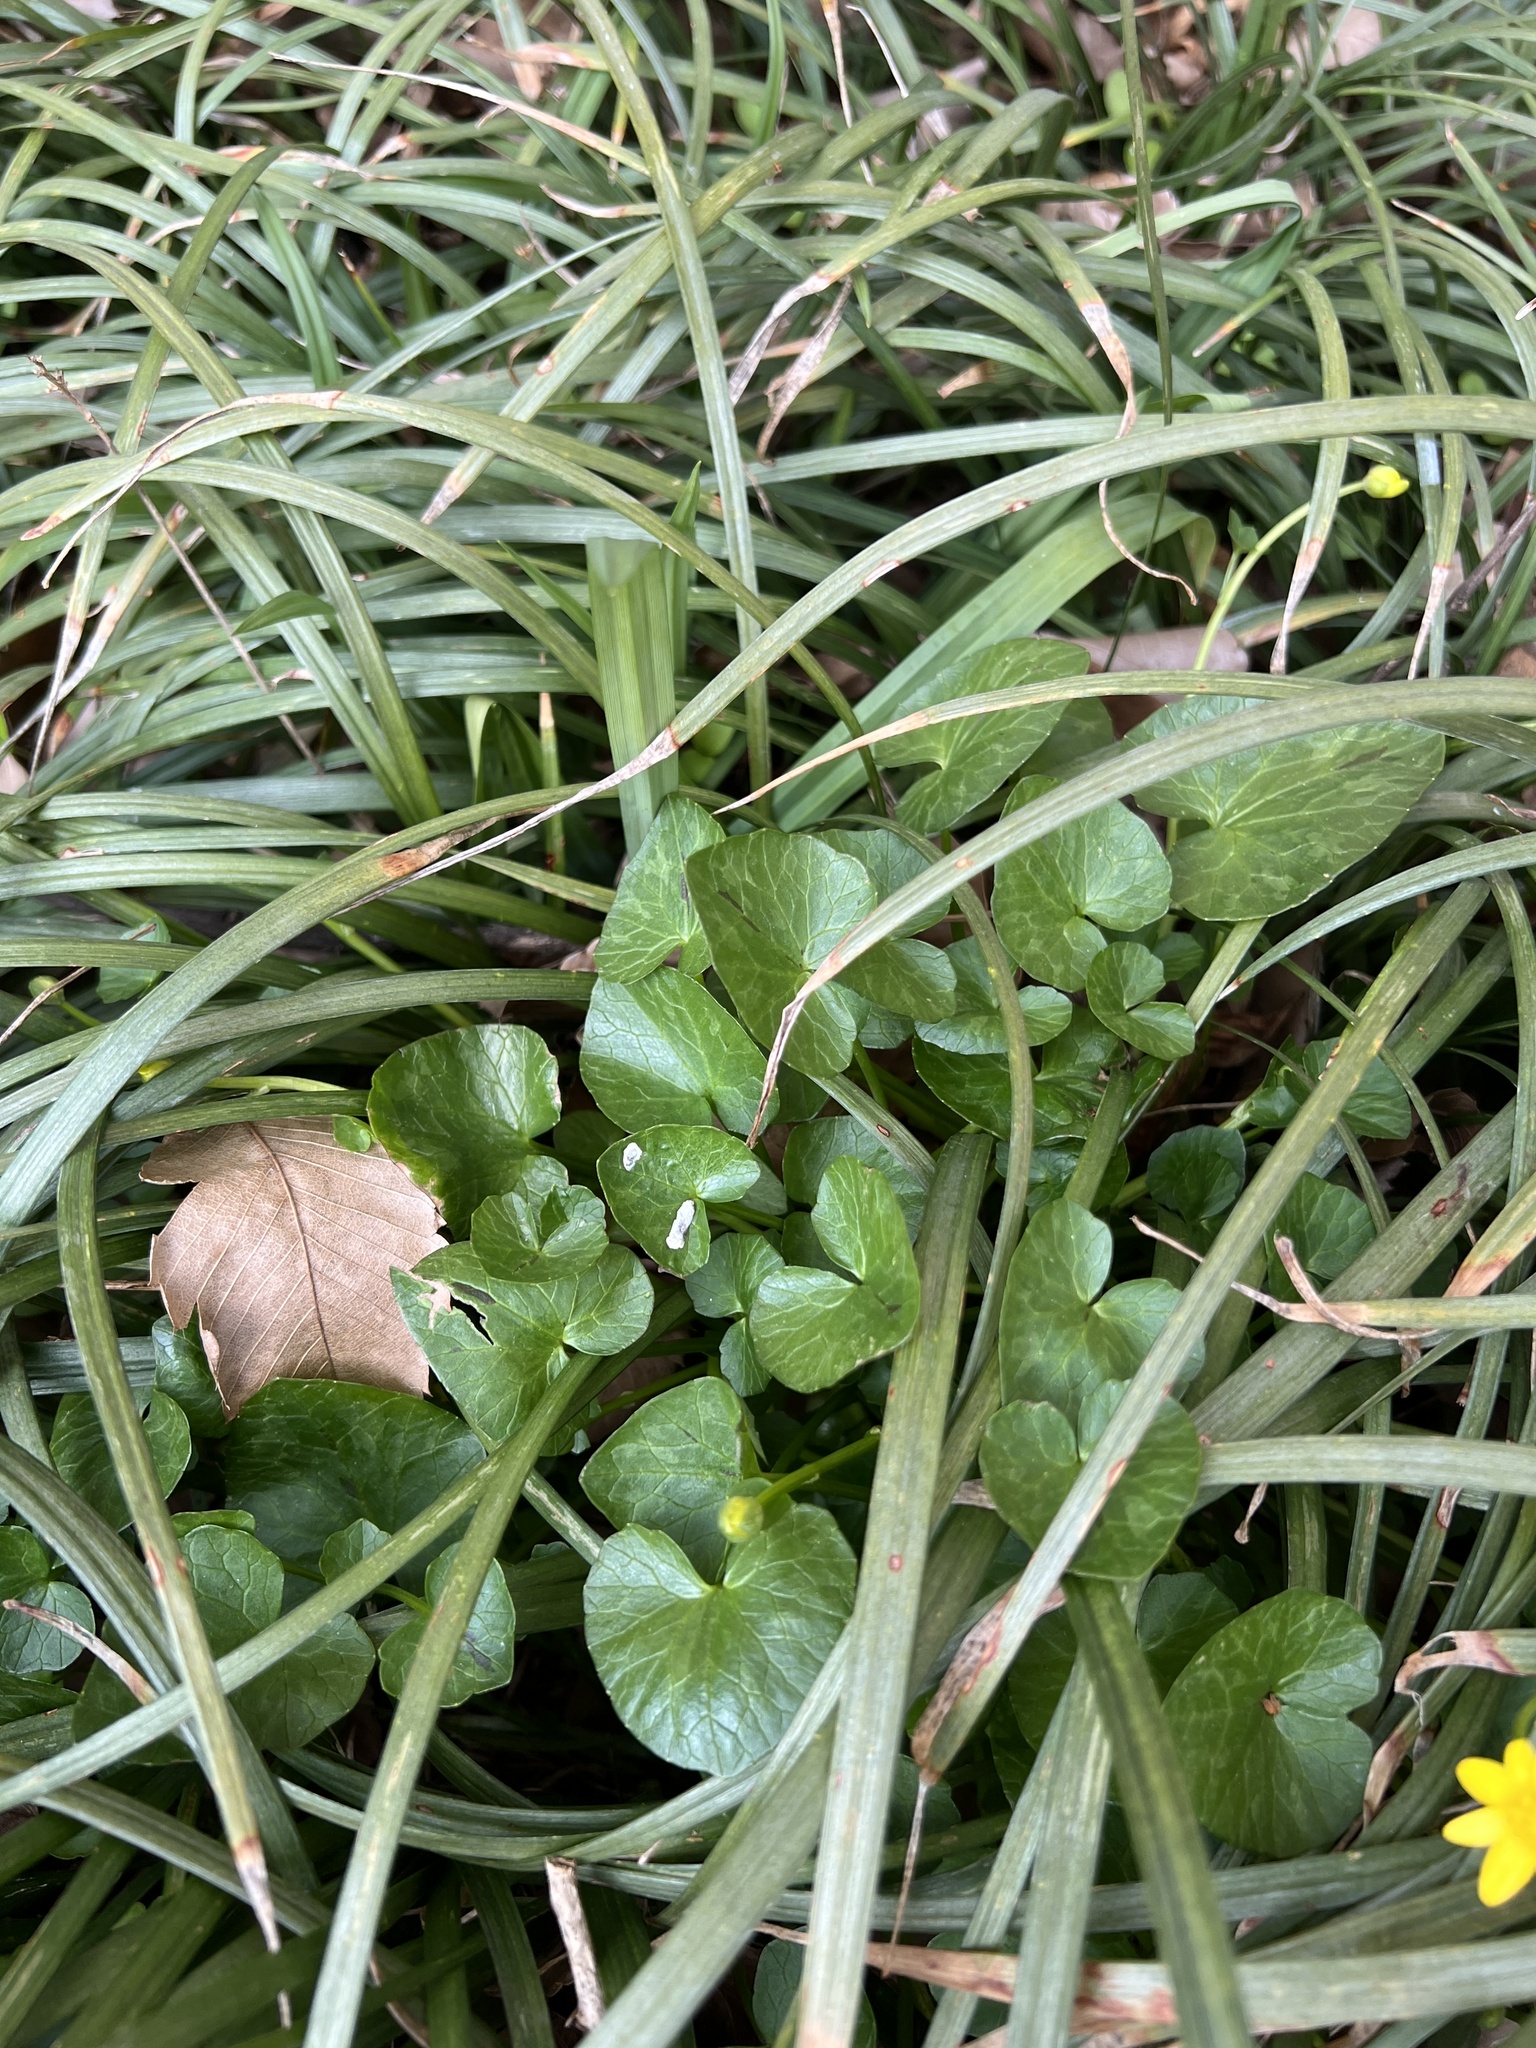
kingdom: Plantae
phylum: Tracheophyta
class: Magnoliopsida
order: Ranunculales
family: Ranunculaceae
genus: Ficaria
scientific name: Ficaria verna
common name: Lesser celandine
